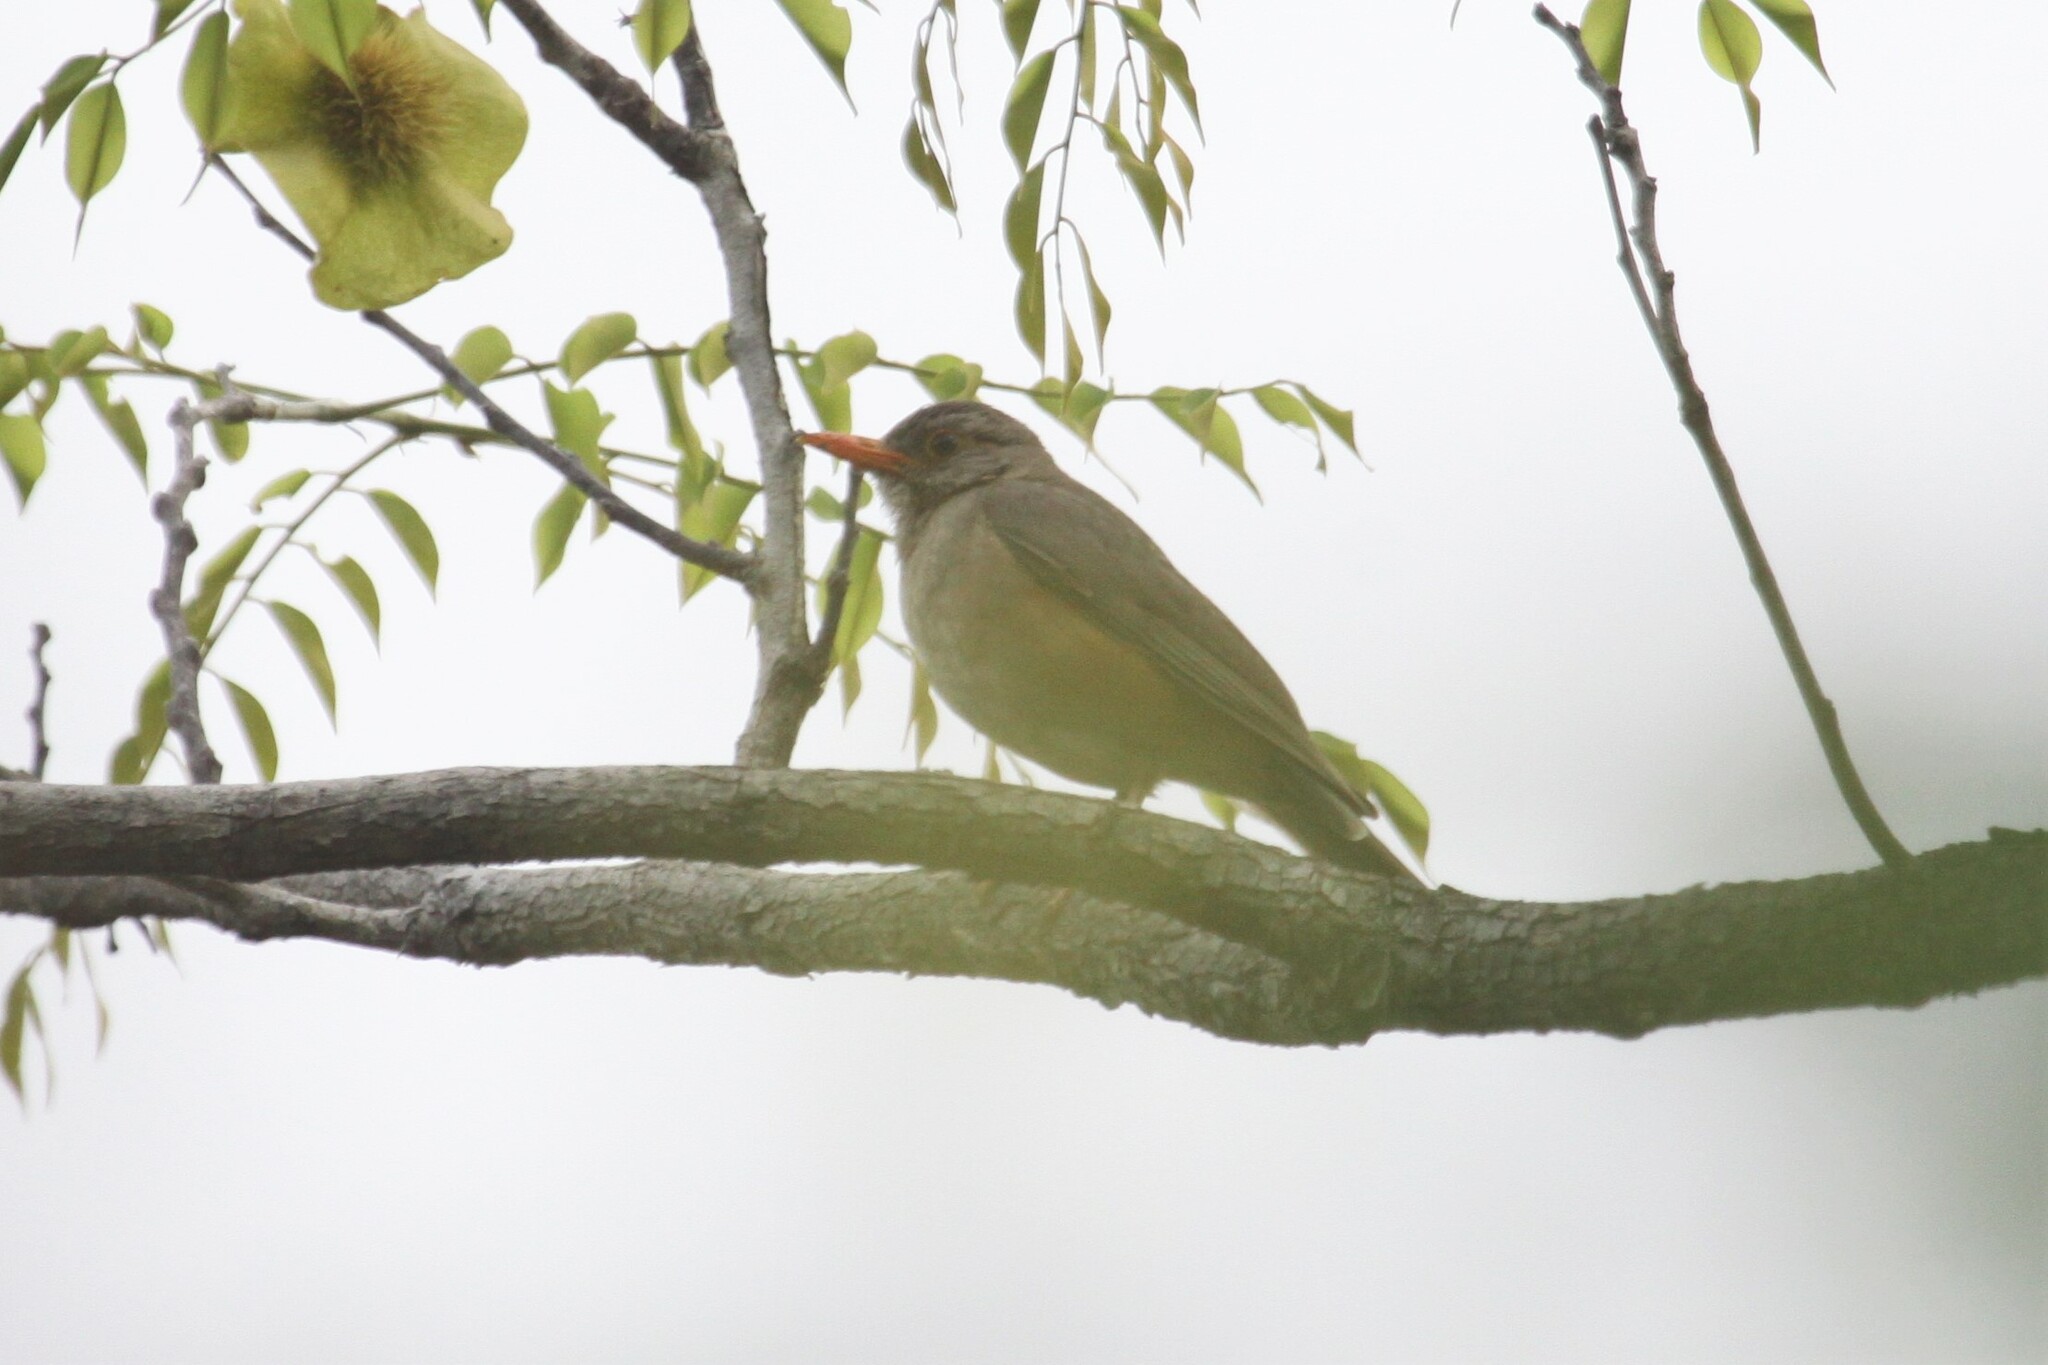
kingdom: Animalia
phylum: Chordata
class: Aves
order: Passeriformes
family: Turdidae
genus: Turdus
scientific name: Turdus libonyana
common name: Kurrichane thrush
